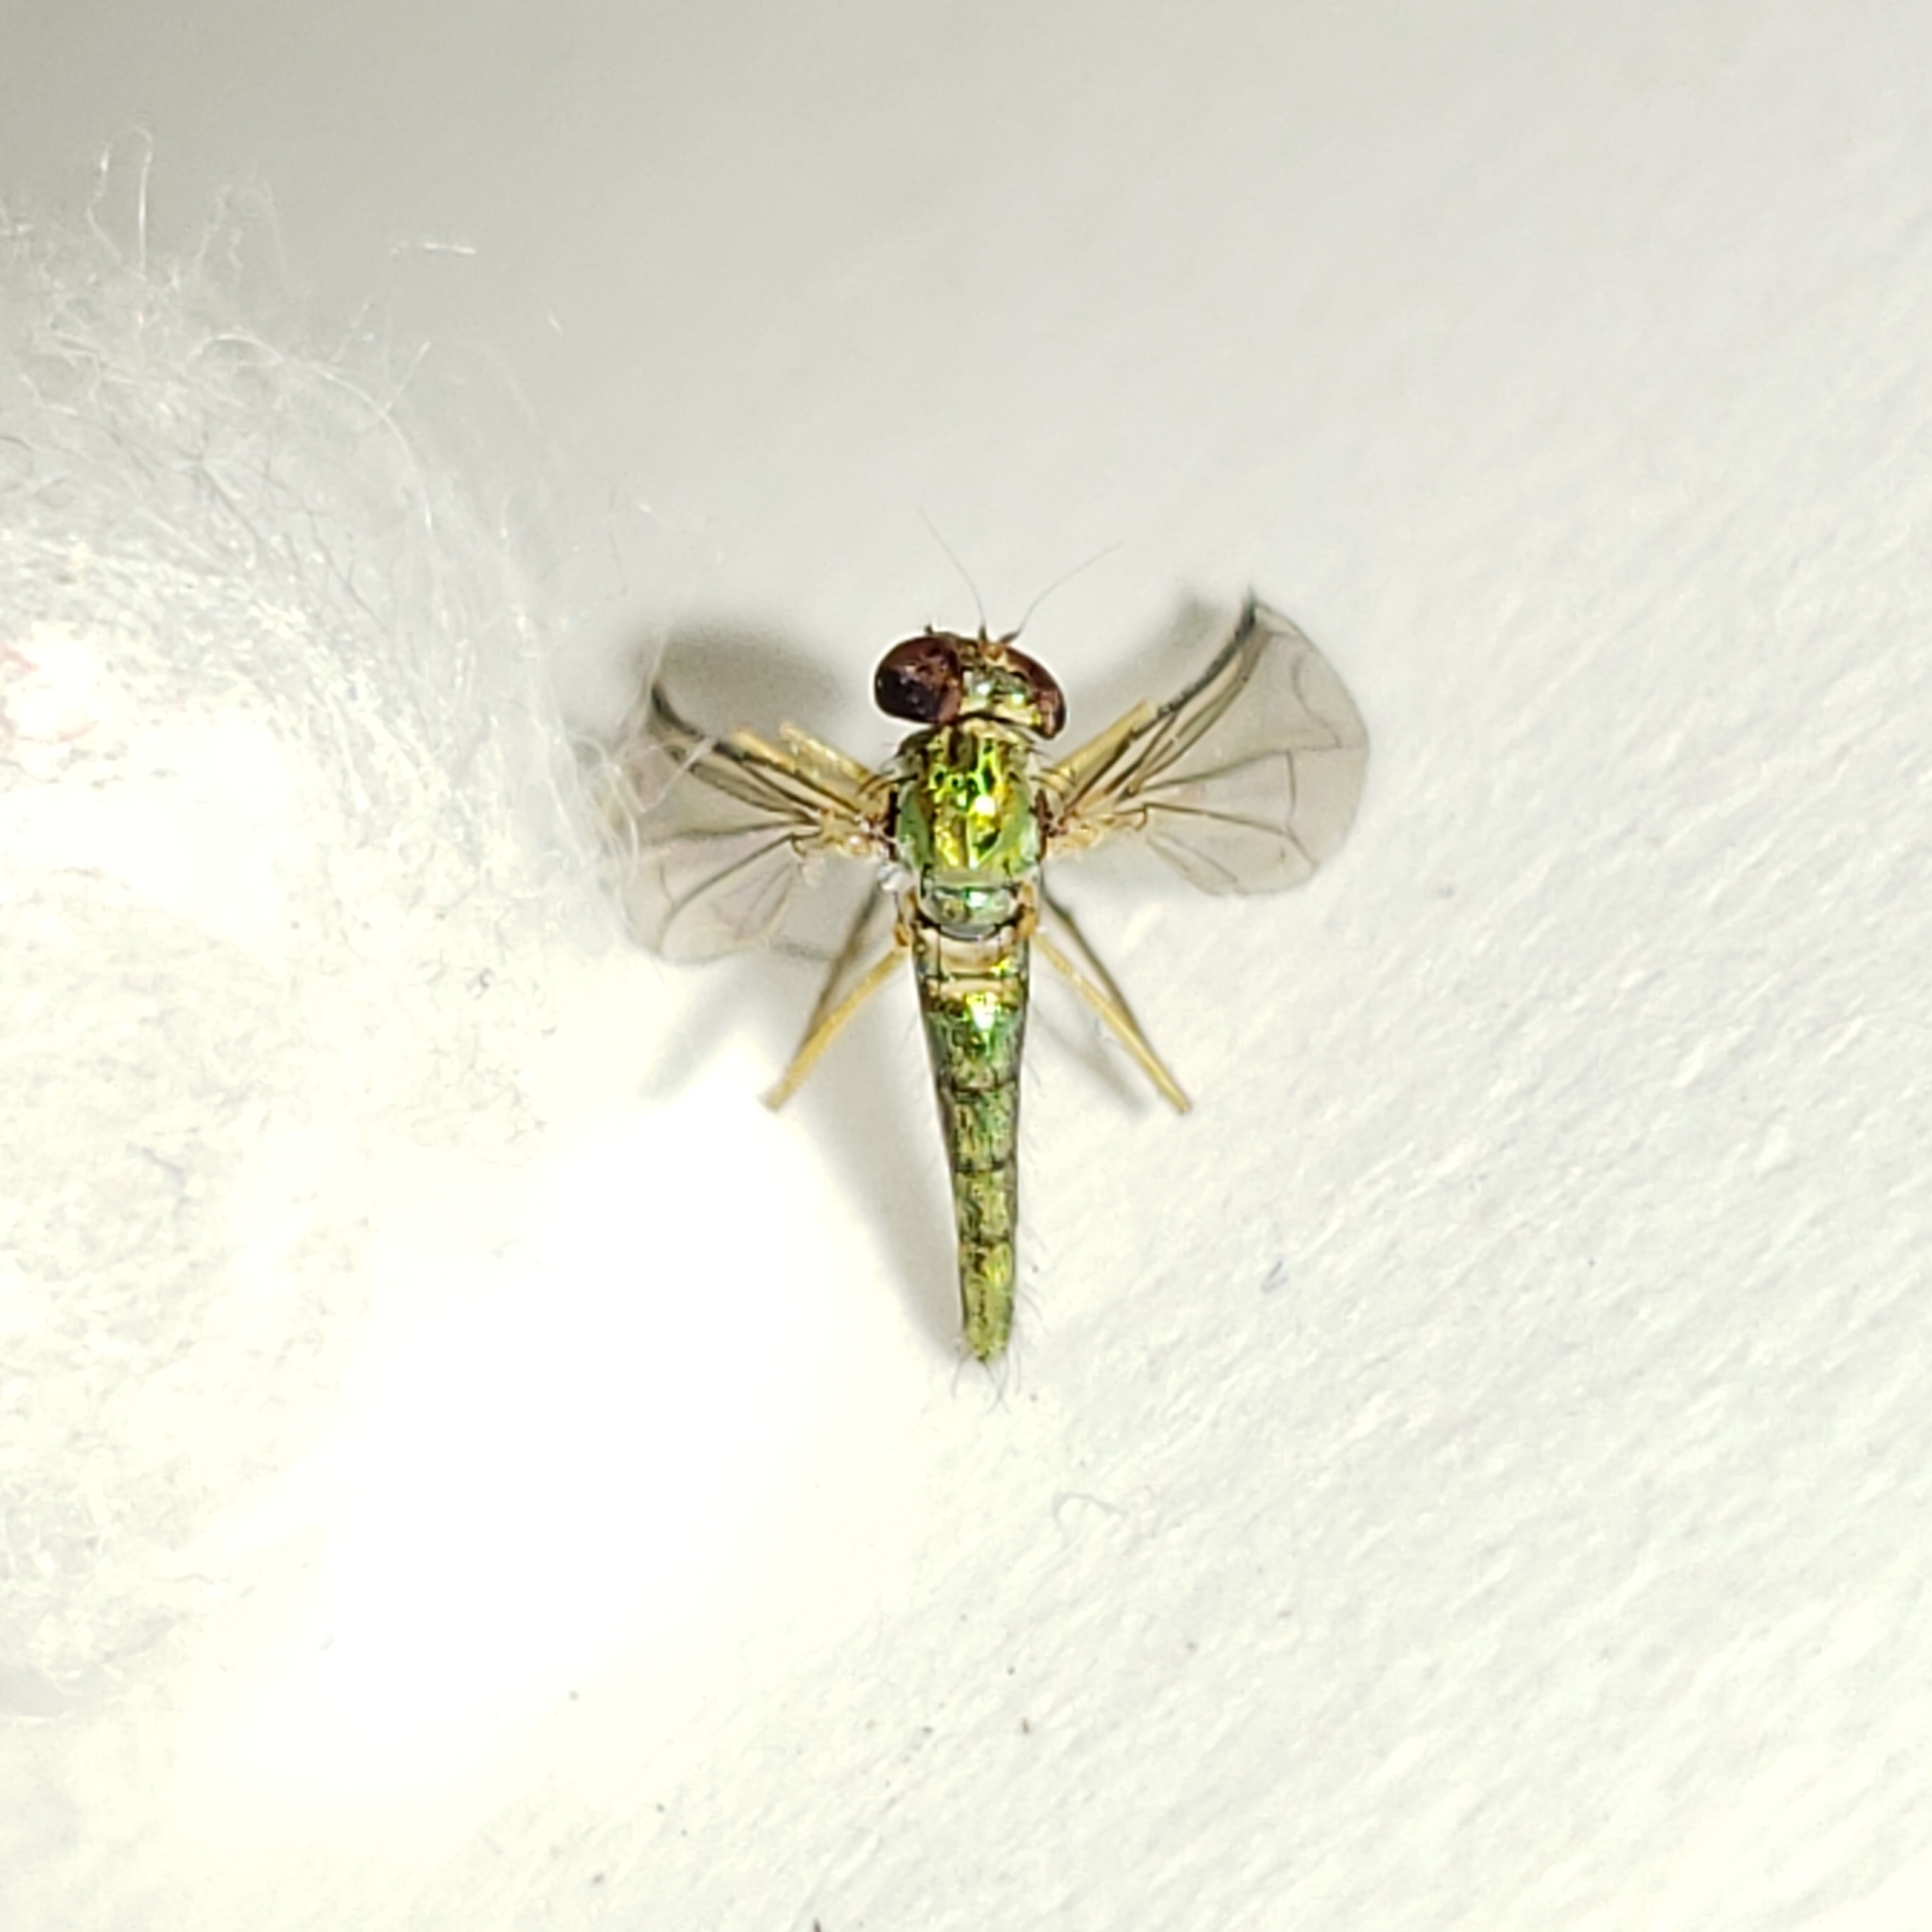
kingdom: Animalia
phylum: Arthropoda
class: Insecta
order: Diptera
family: Dolichopodidae
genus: Amblypsilopus
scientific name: Amblypsilopus psittacinus
